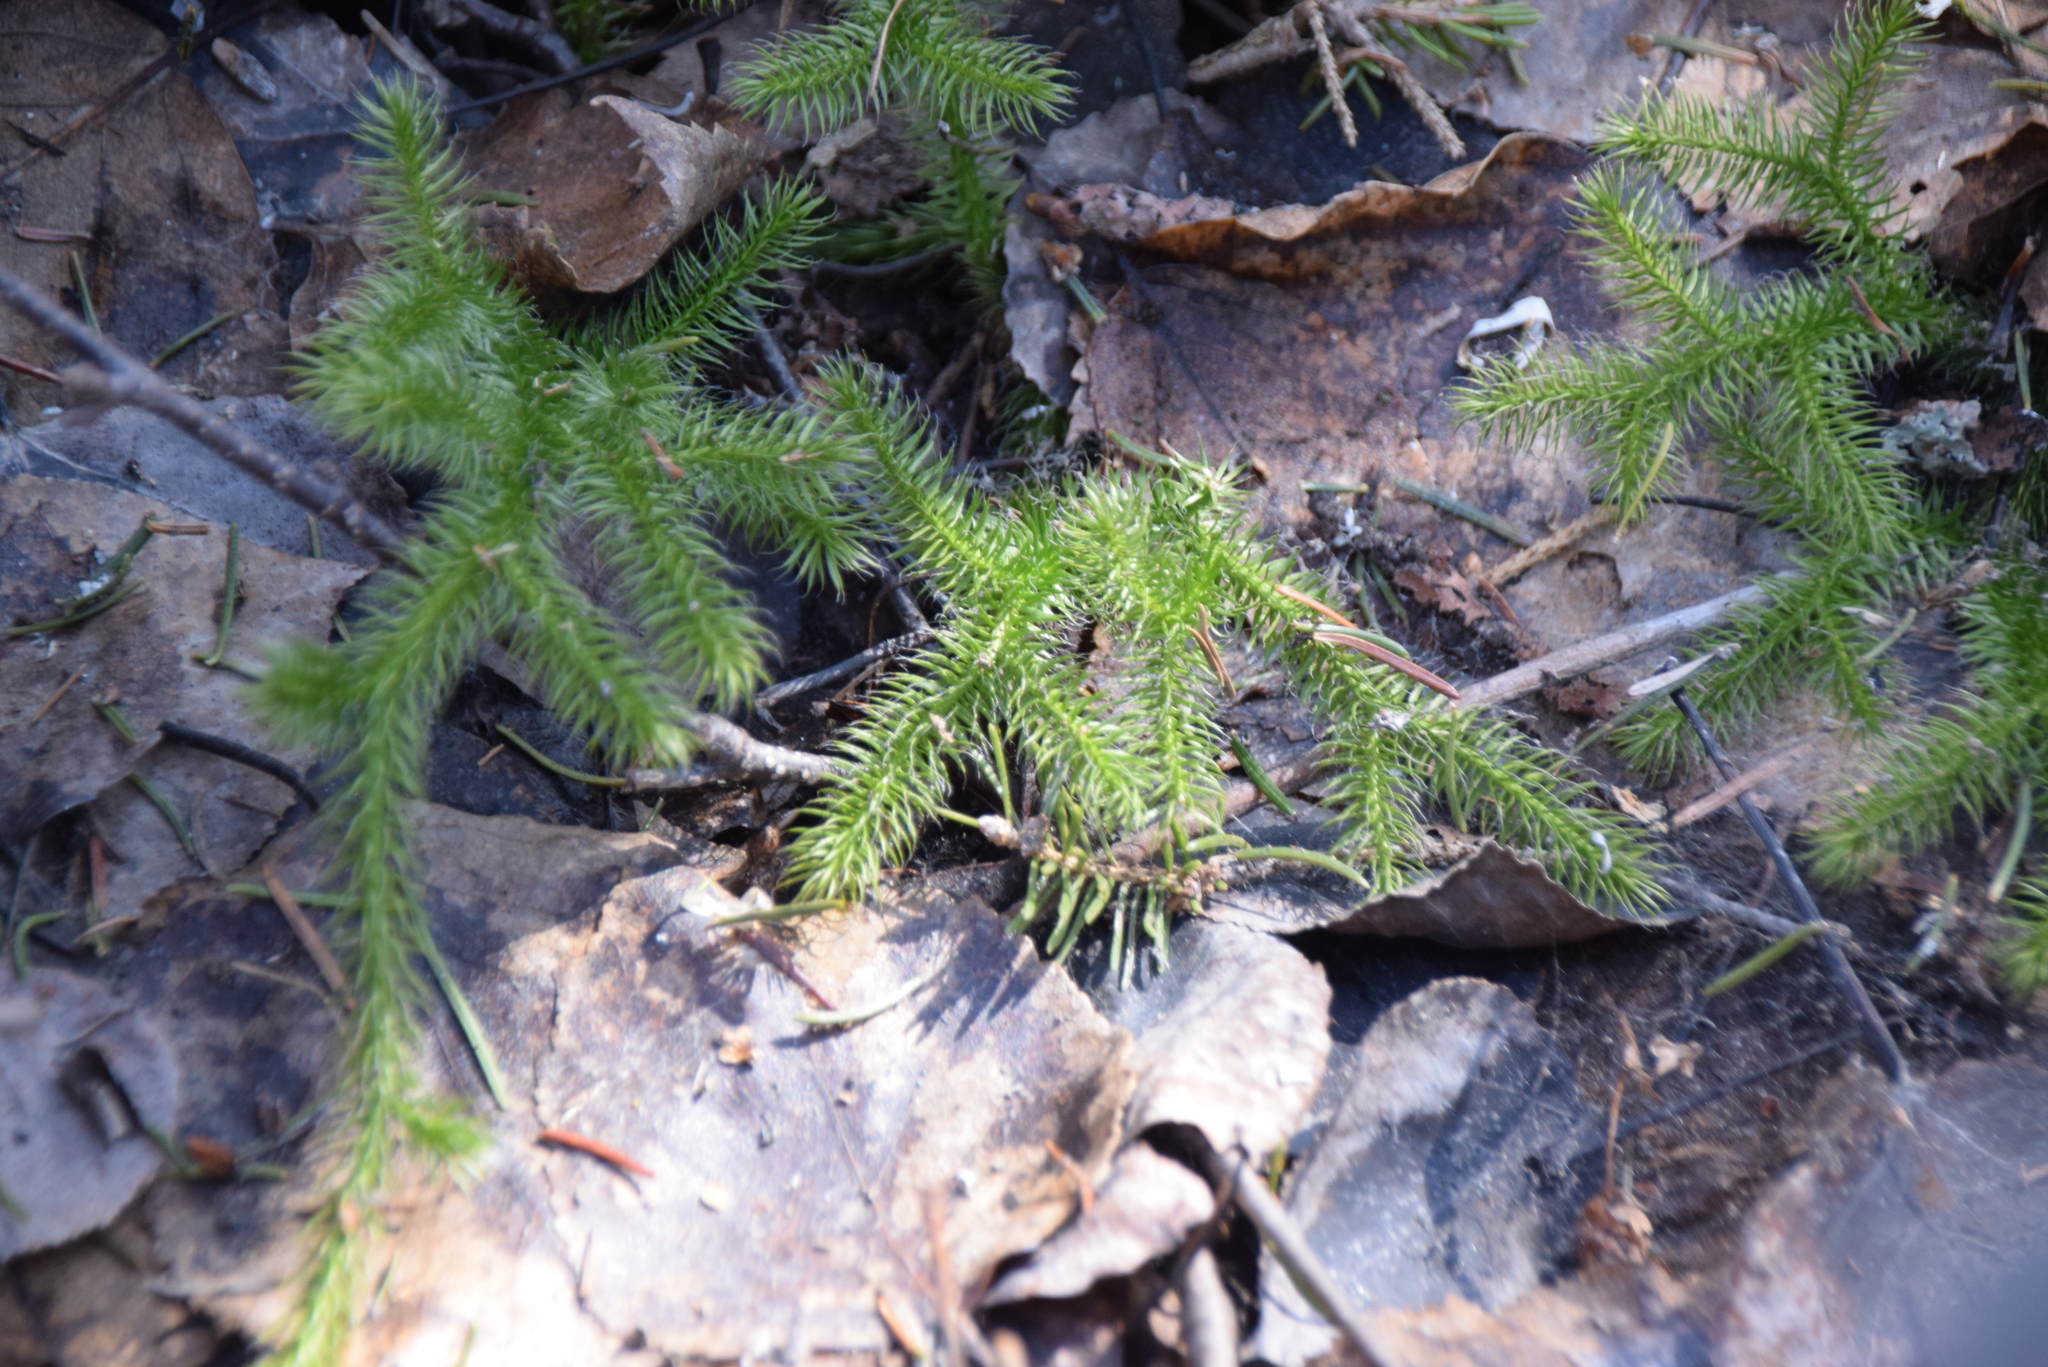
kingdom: Plantae
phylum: Tracheophyta
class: Lycopodiopsida
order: Lycopodiales
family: Lycopodiaceae
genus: Lycopodium
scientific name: Lycopodium clavatum
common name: Stag's-horn clubmoss
